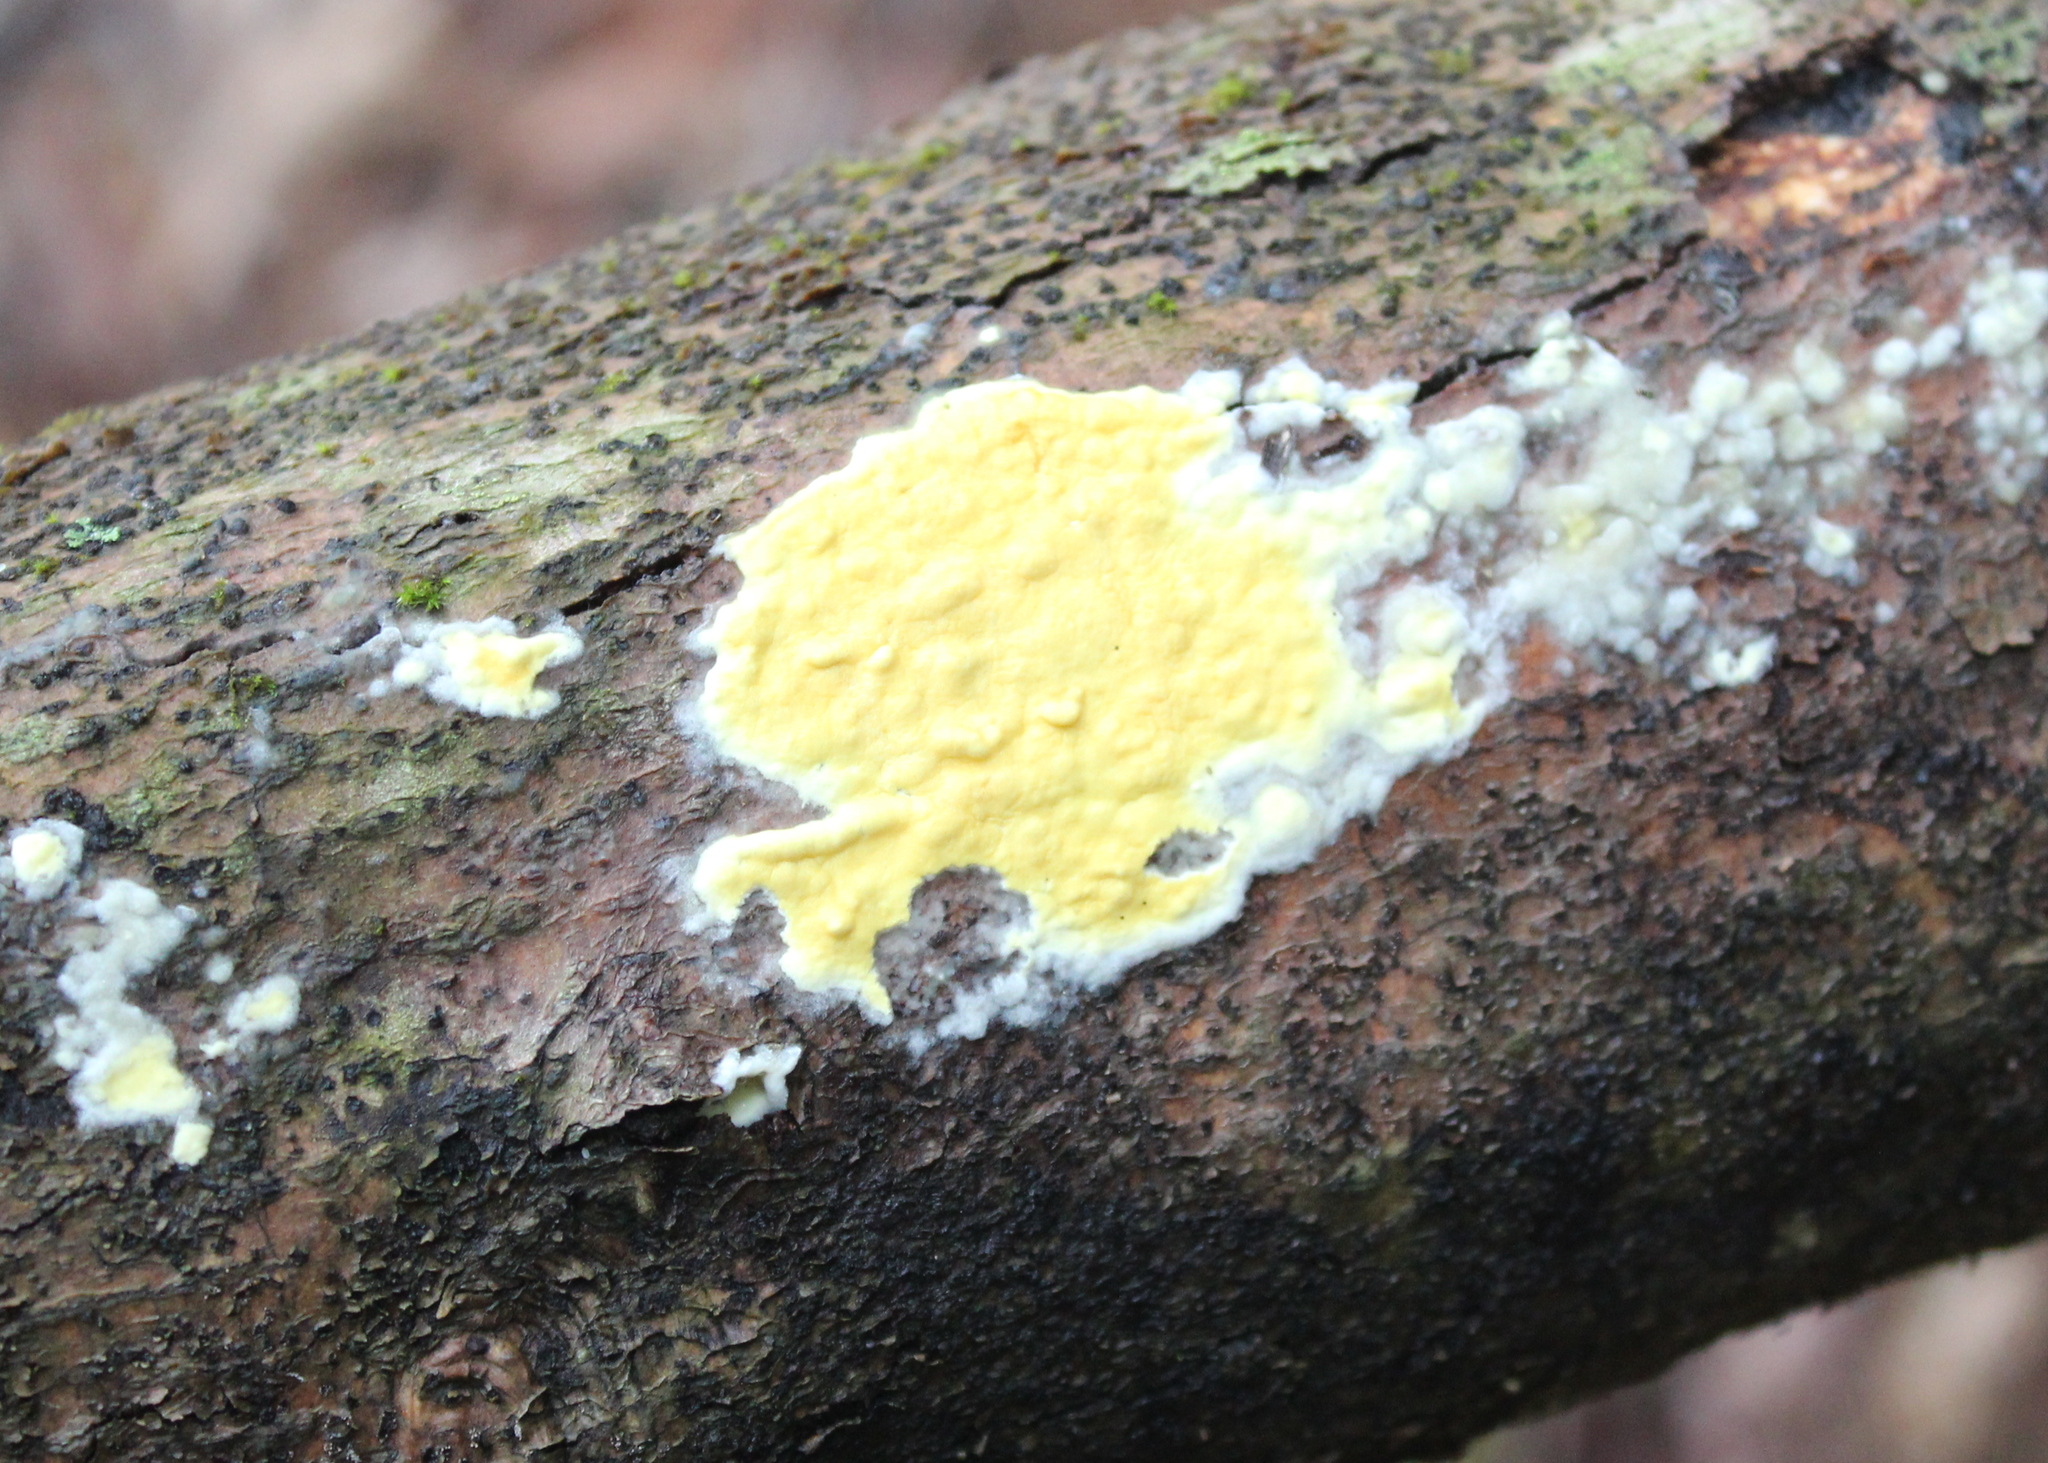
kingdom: Fungi
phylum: Ascomycota
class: Sordariomycetes
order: Hypocreales
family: Hypocreaceae
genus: Trichoderma
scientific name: Trichoderma sulphureum
